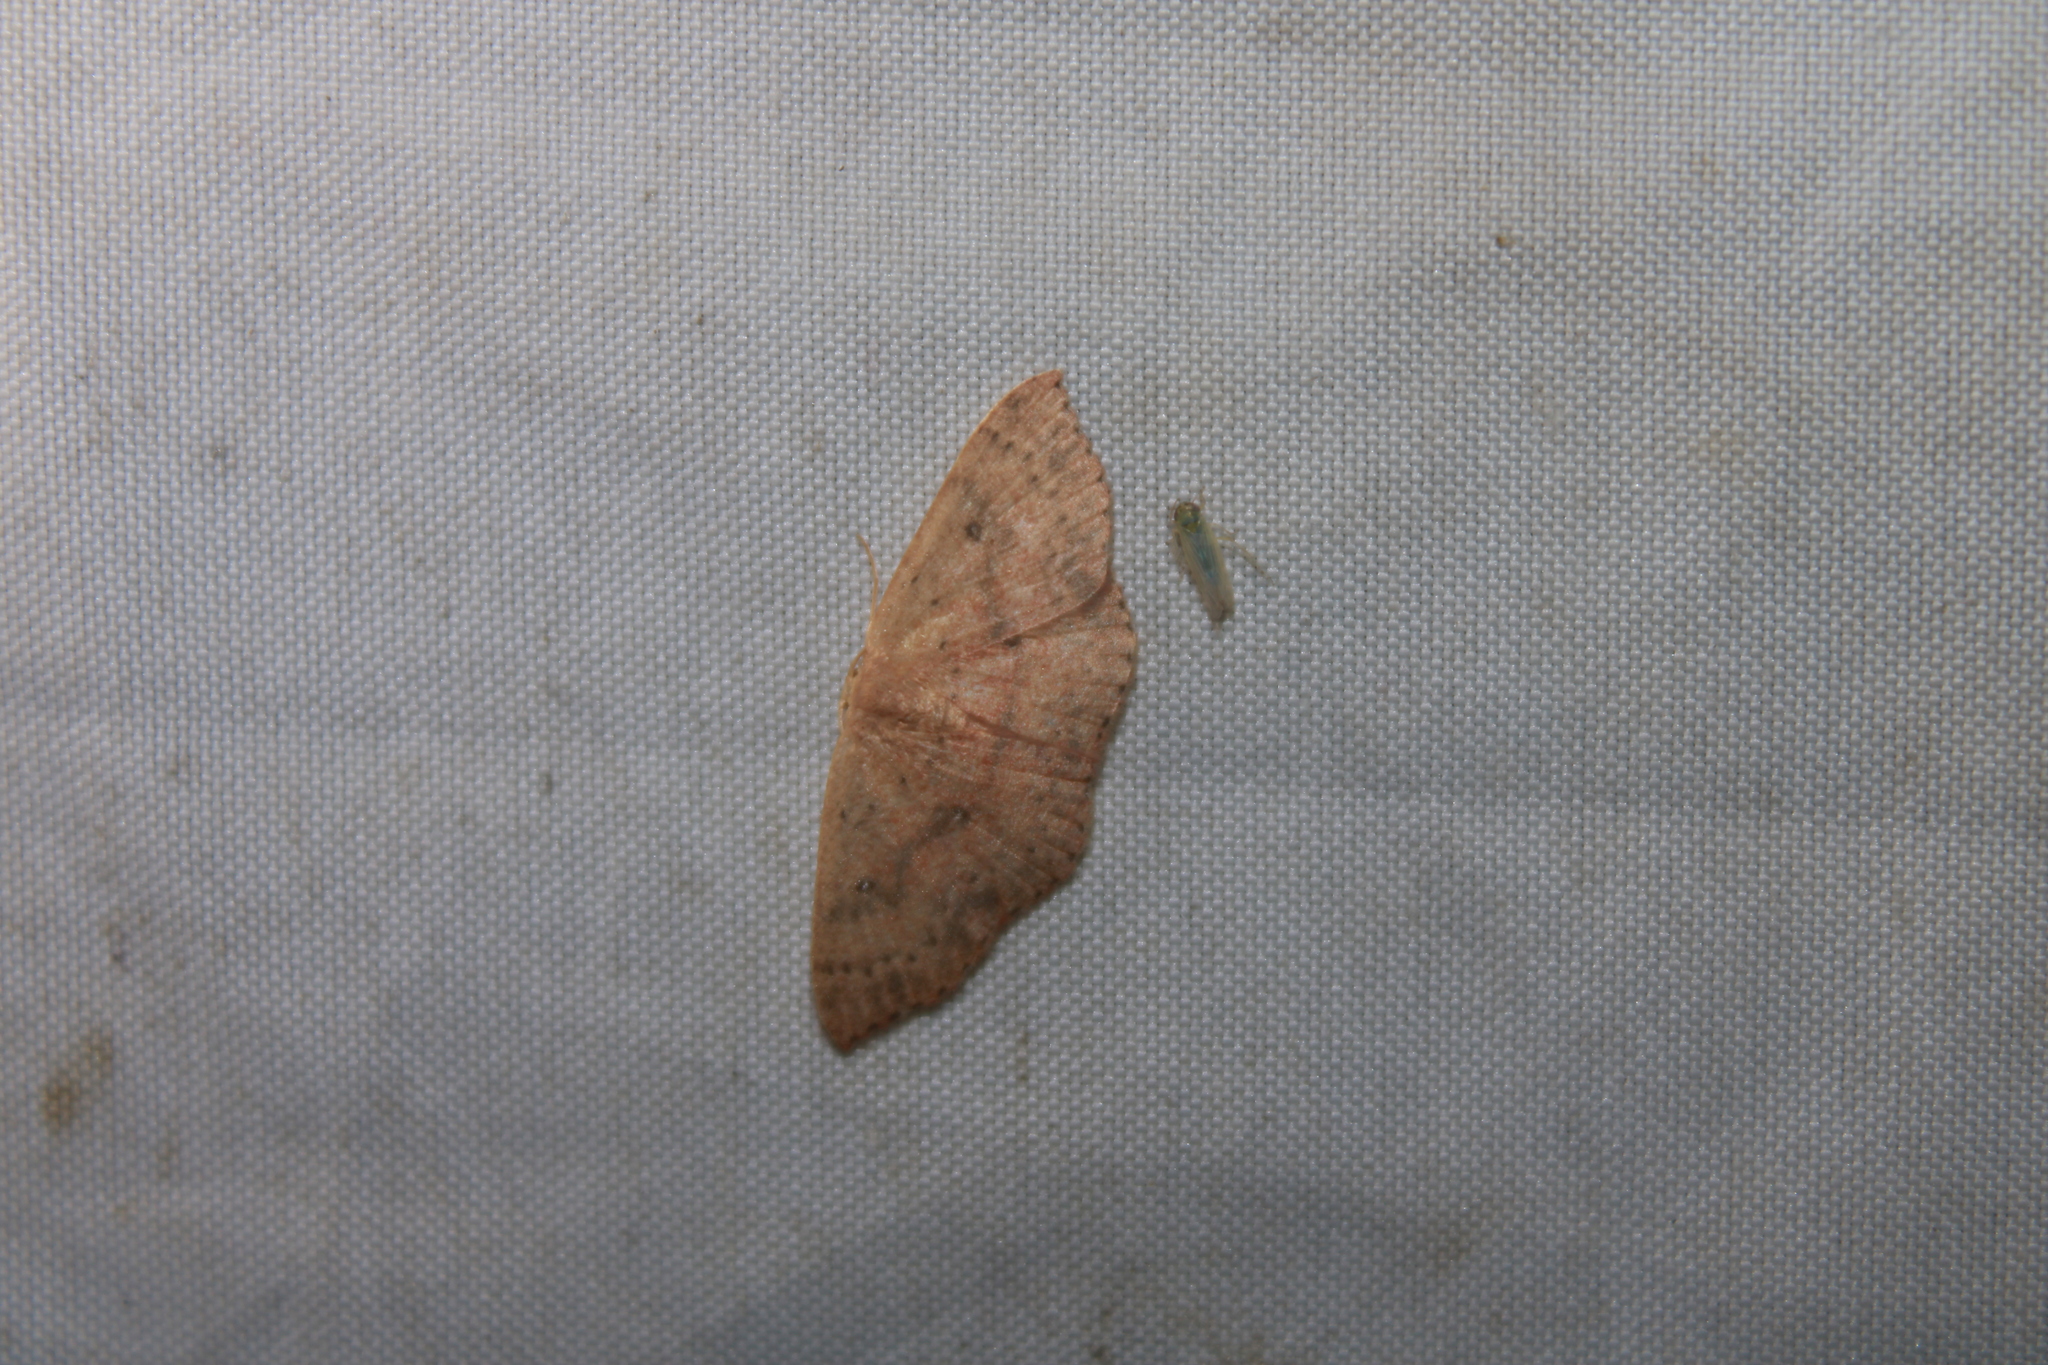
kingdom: Animalia
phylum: Arthropoda
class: Insecta
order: Lepidoptera
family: Geometridae
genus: Cyclophora
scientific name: Cyclophora packardi
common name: Packard's wave
